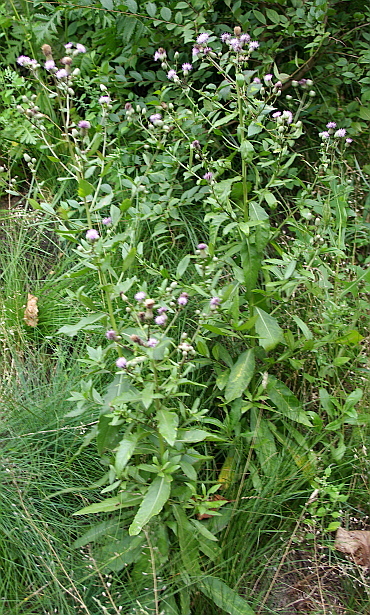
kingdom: Plantae
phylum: Tracheophyta
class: Magnoliopsida
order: Asterales
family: Asteraceae
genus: Cirsium
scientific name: Cirsium arvense
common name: Creeping thistle
